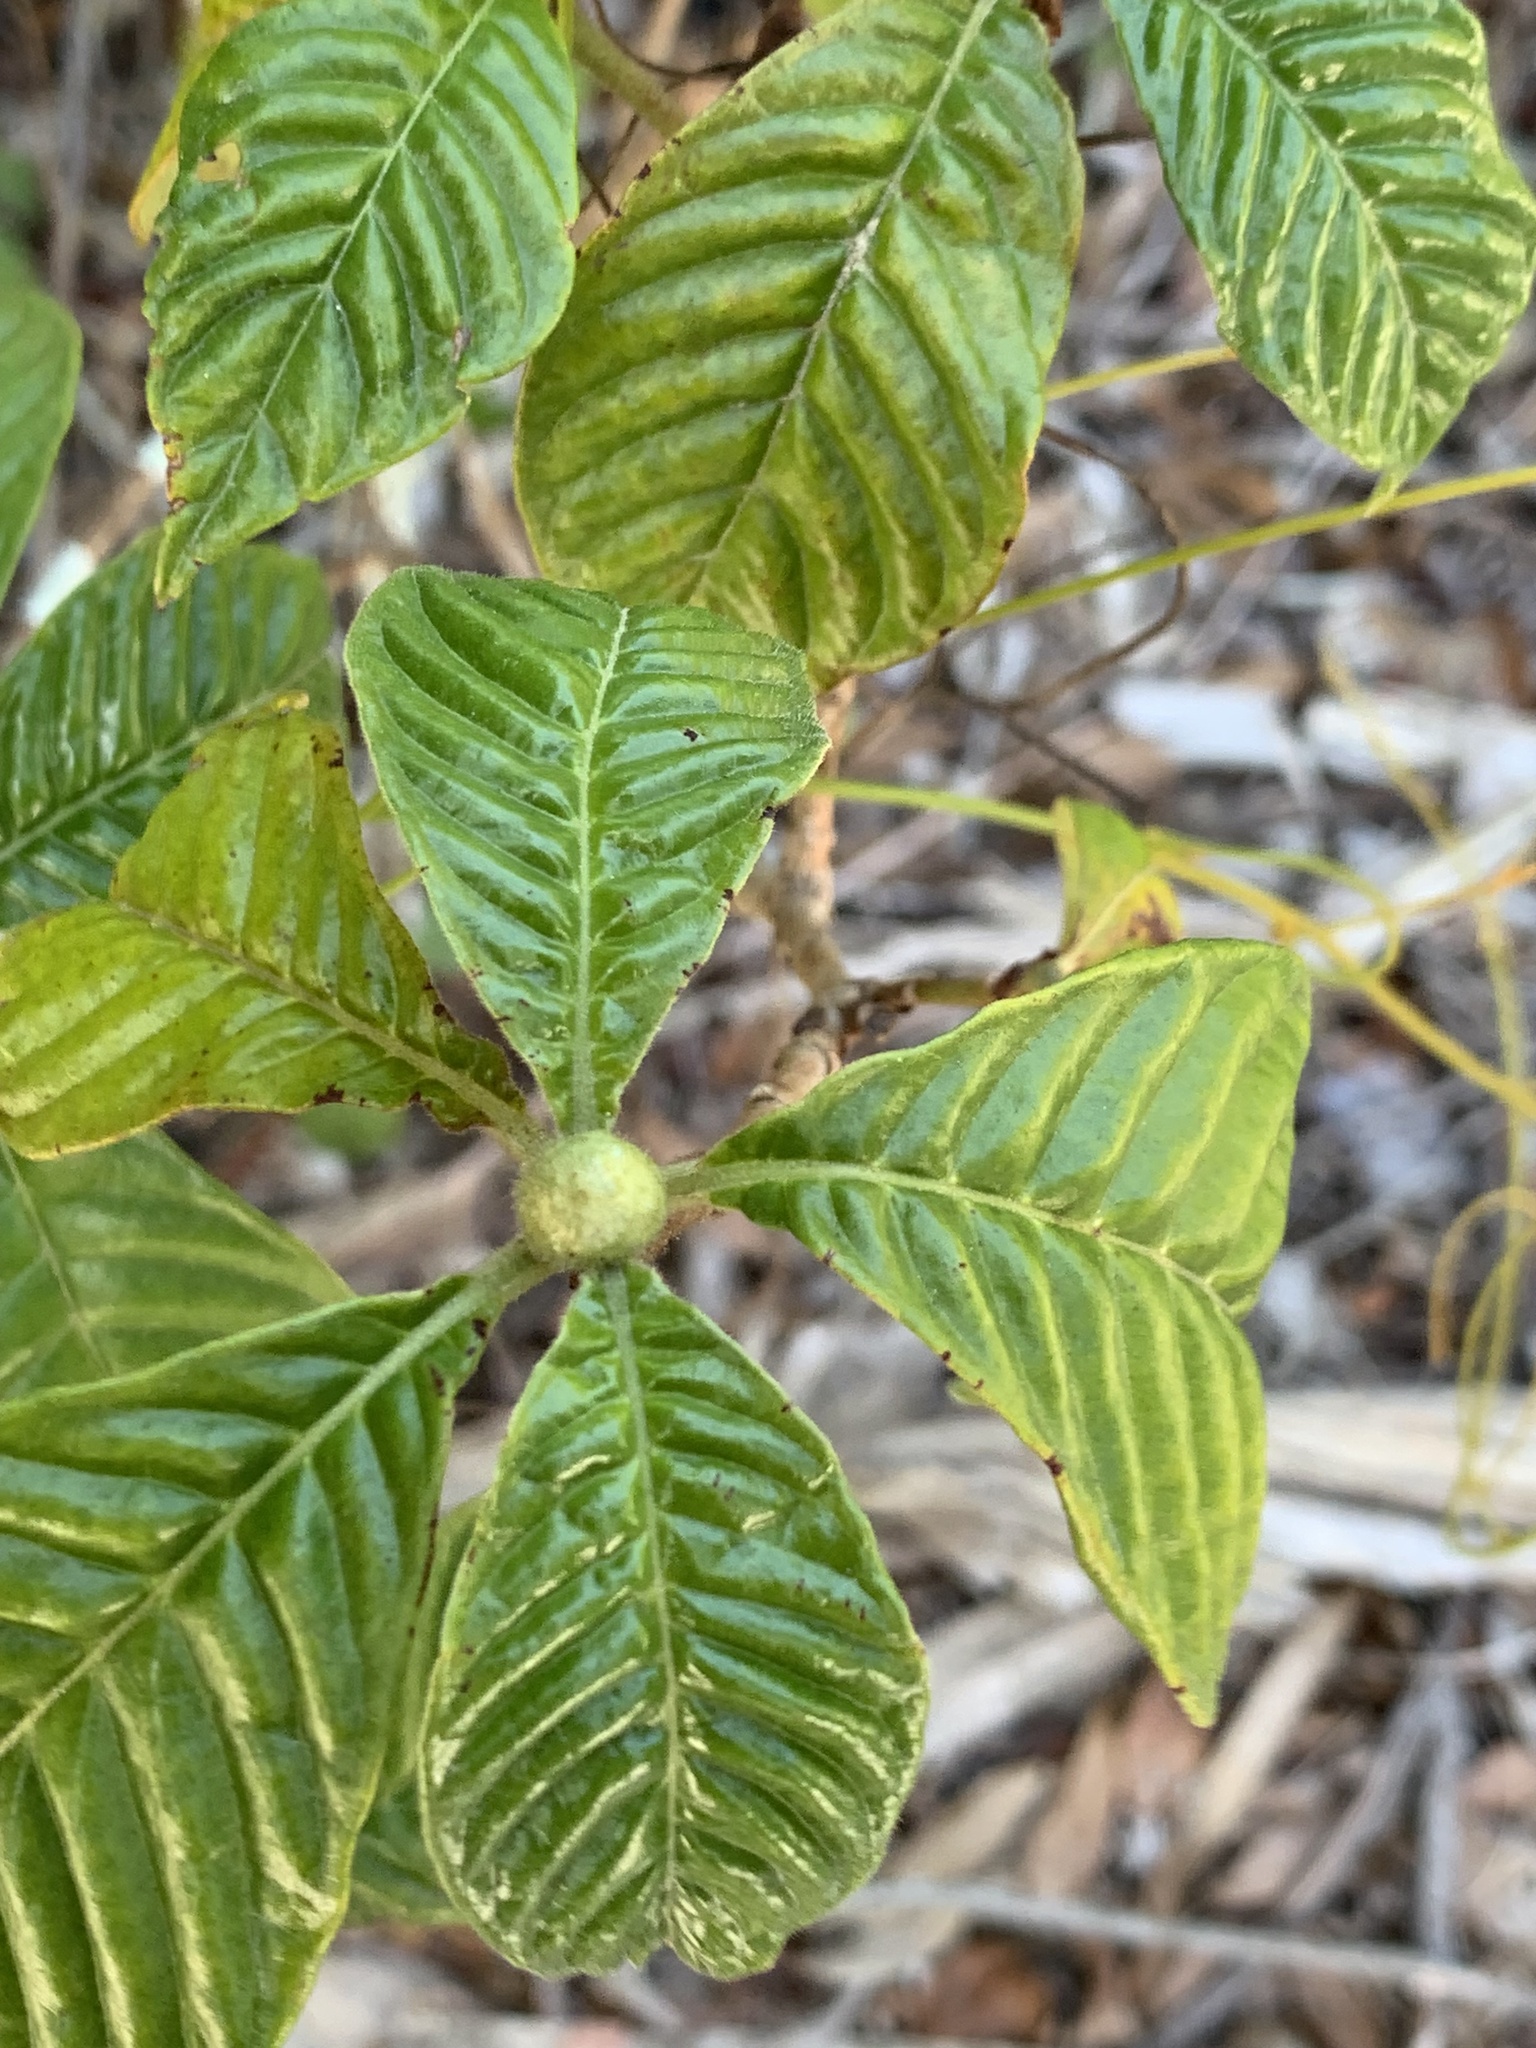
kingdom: Plantae
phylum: Tracheophyta
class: Magnoliopsida
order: Gentianales
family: Rubiaceae
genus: Psychotria
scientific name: Psychotria nervosa
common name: Bastard cankerberry
